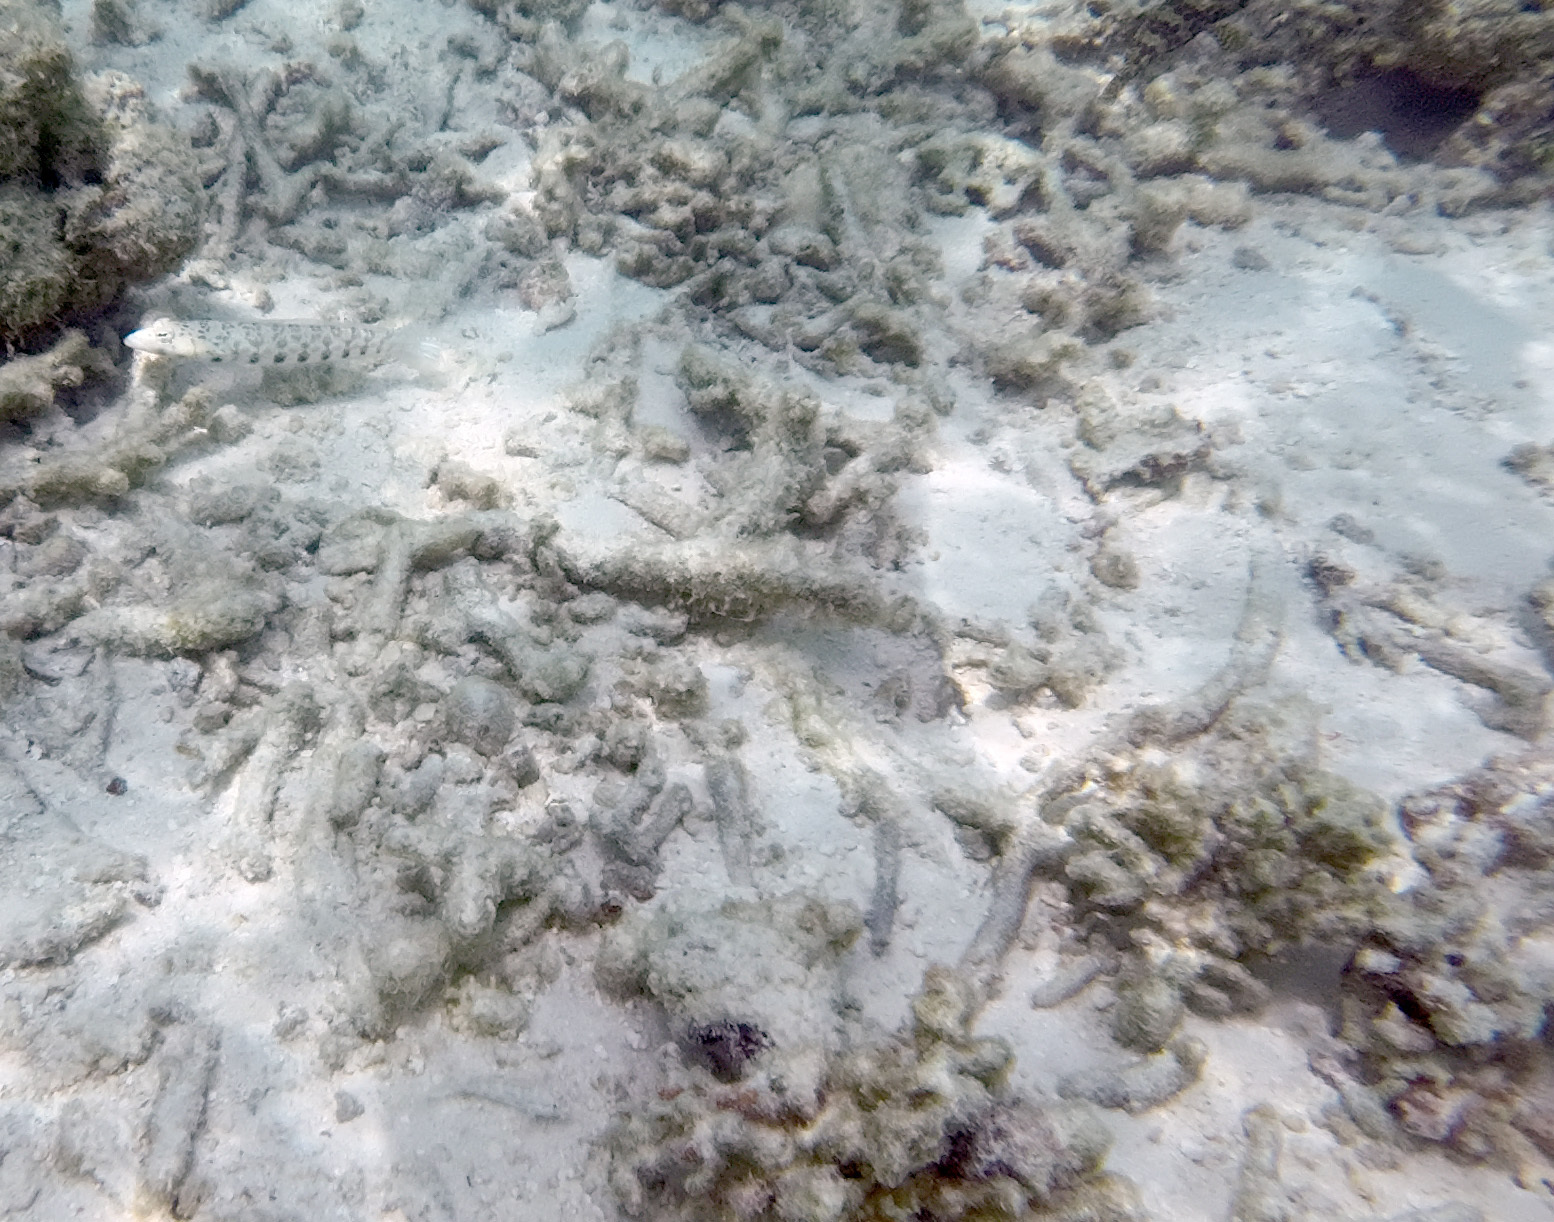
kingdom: Animalia
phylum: Chordata
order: Perciformes
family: Pinguipedidae
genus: Parapercis
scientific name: Parapercis millepunctata
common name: Black-dotted sandperch
